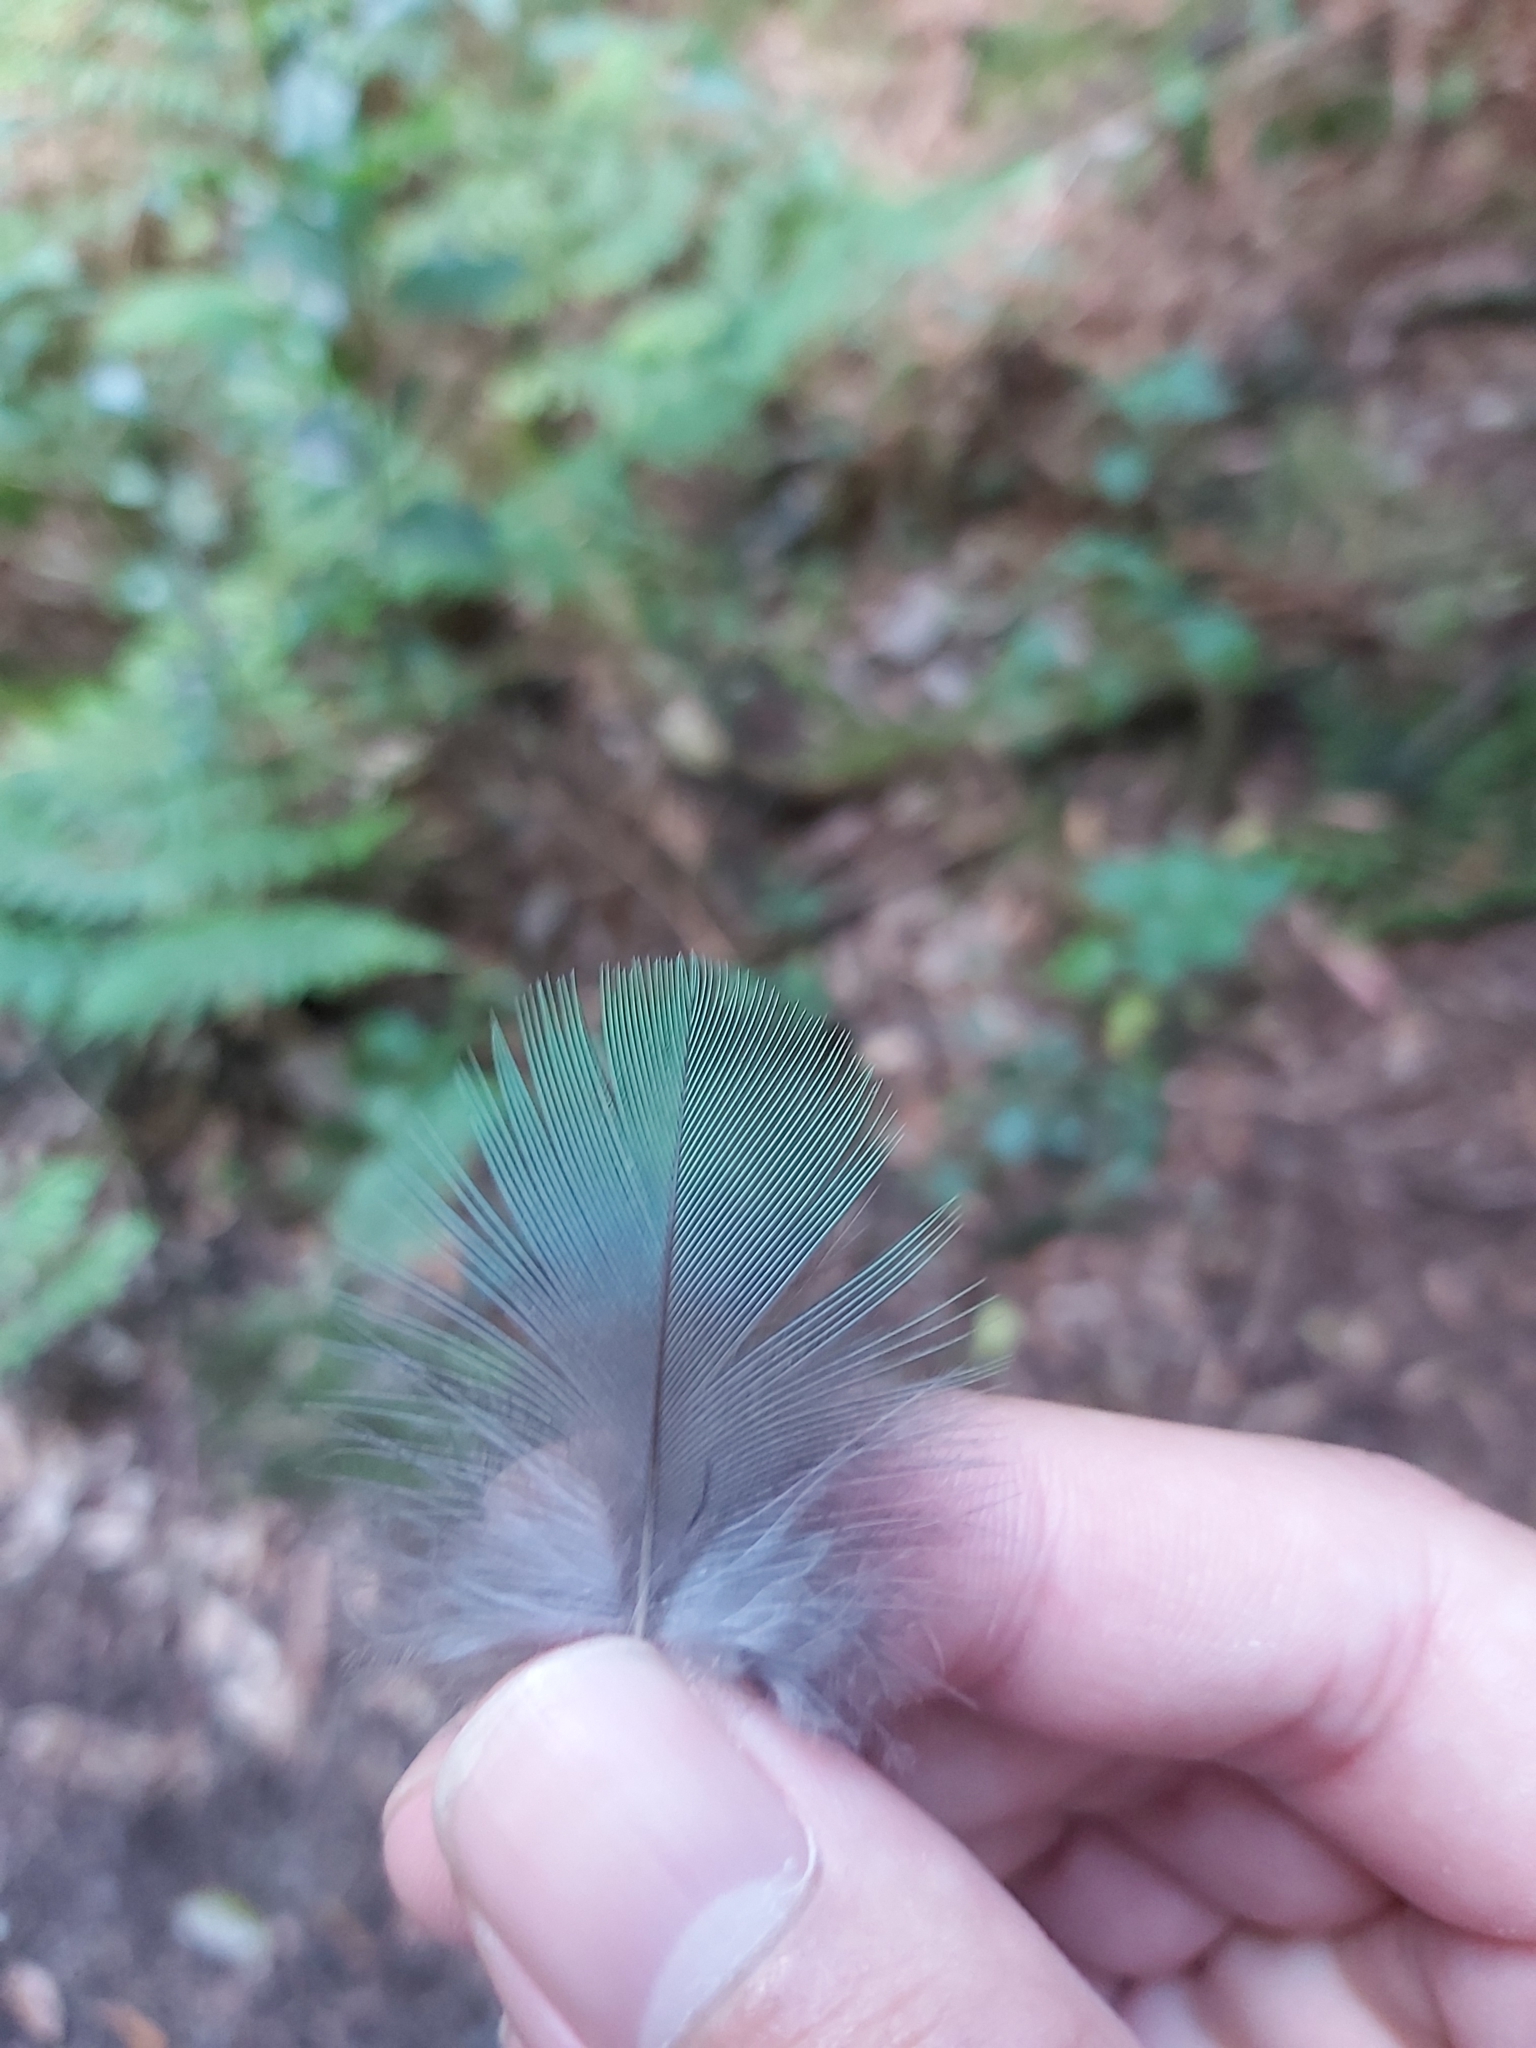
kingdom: Animalia
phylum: Chordata
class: Aves
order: Psittaciformes
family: Psittacidae
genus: Alisterus
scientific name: Alisterus scapularis
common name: Australian king parrot
